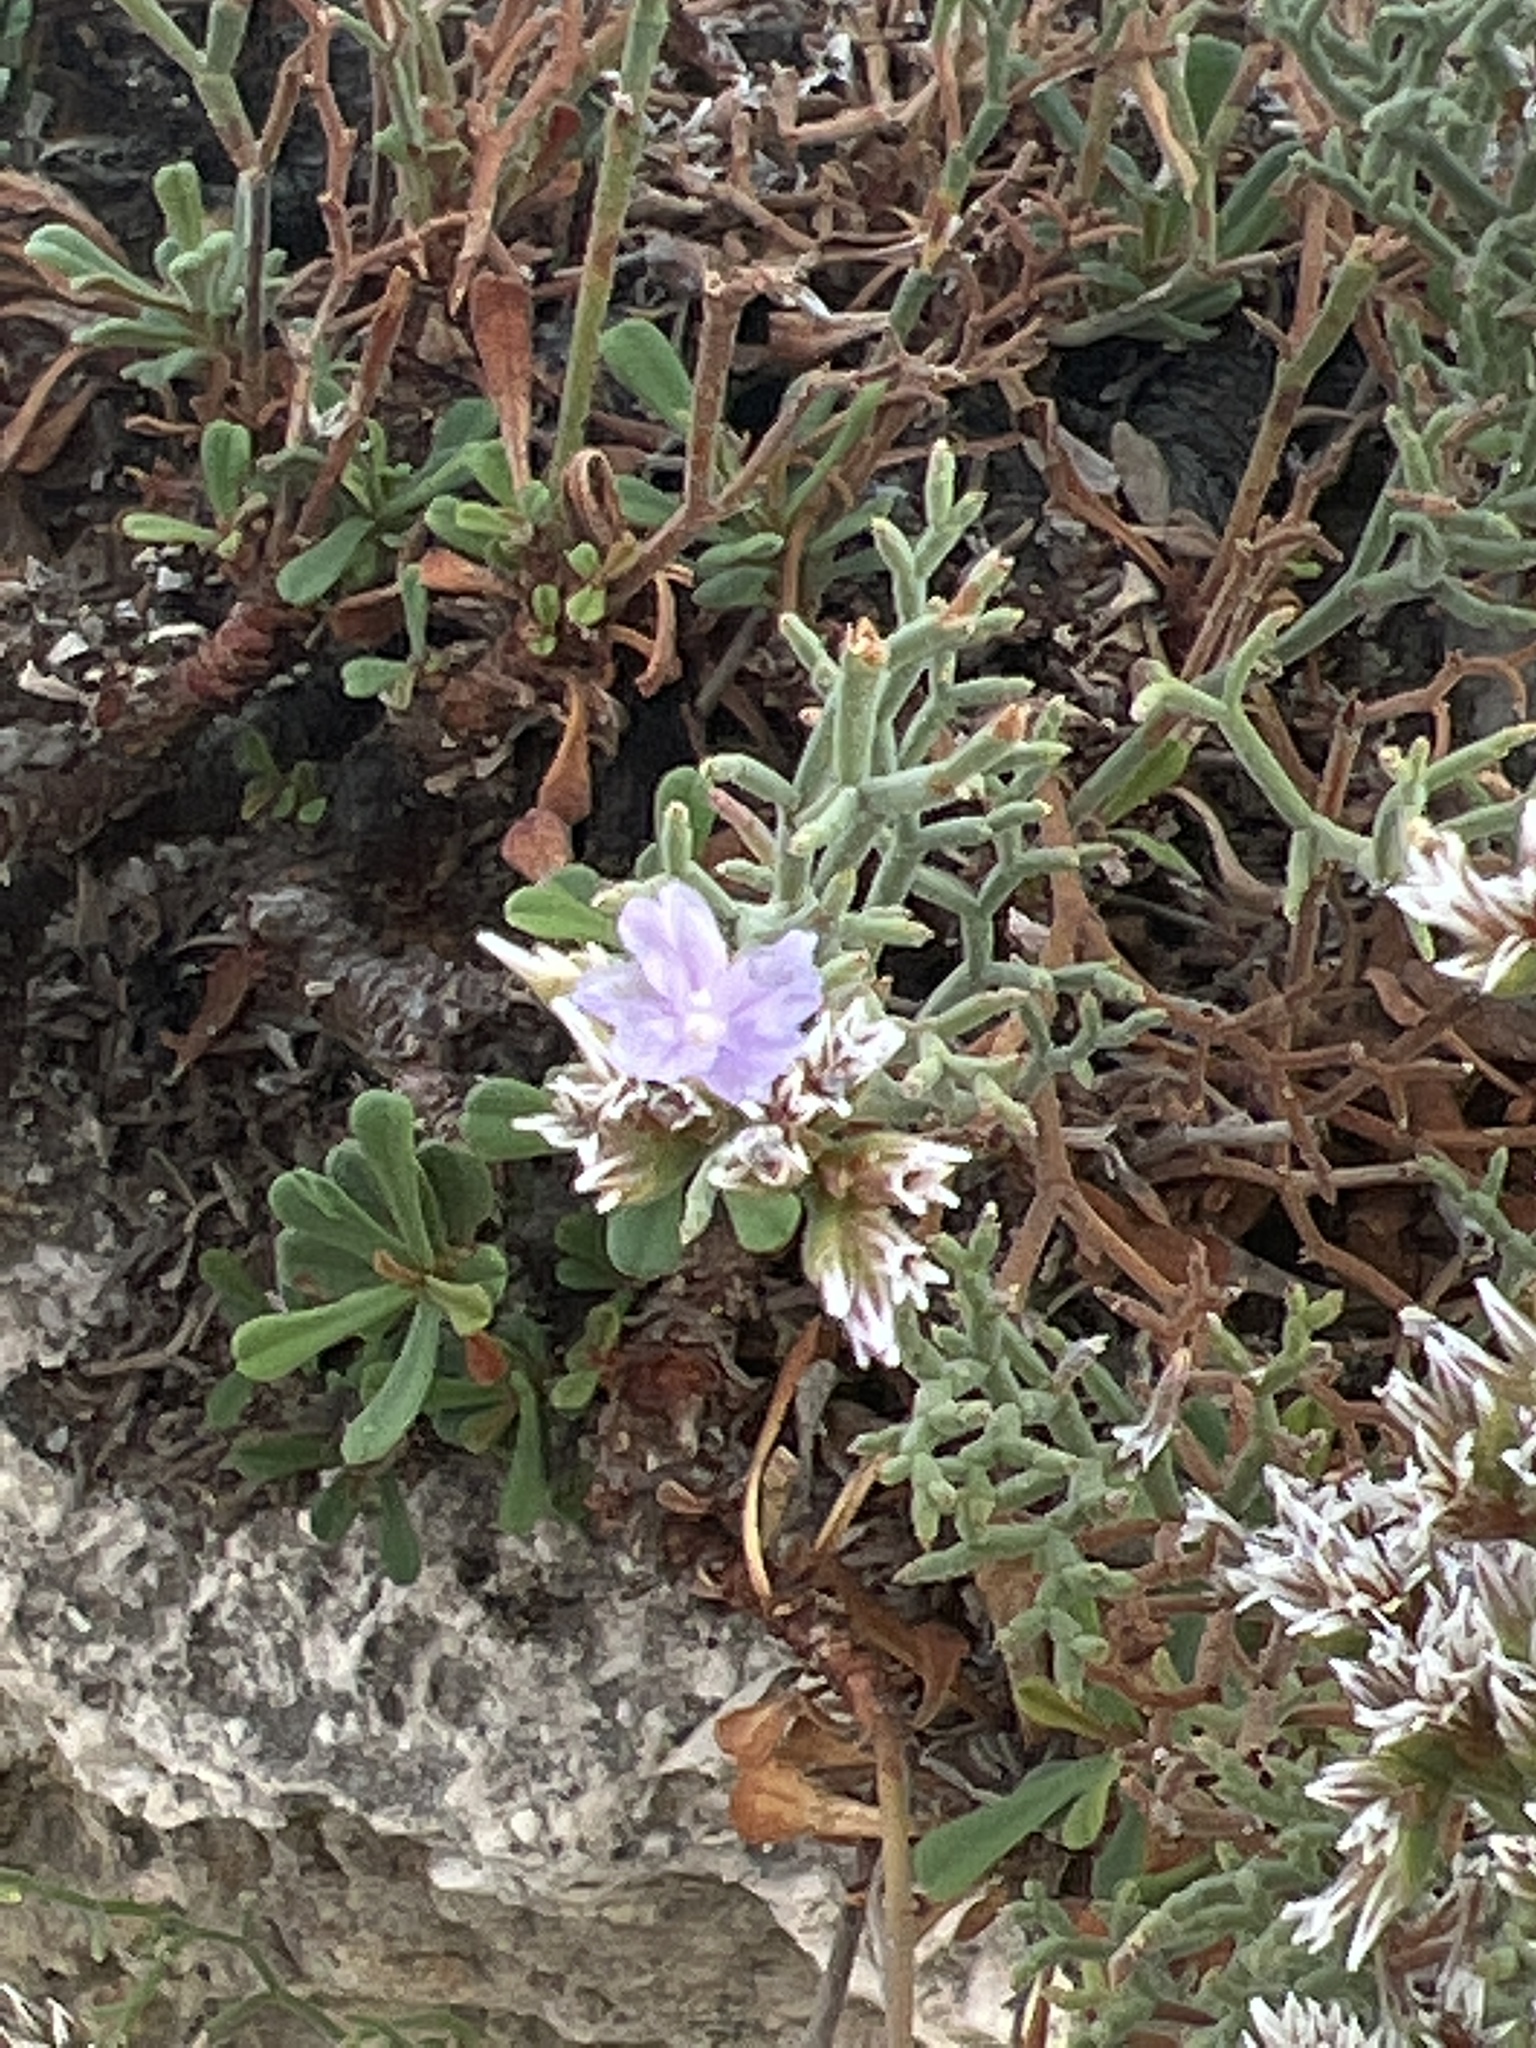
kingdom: Plantae
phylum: Tracheophyta
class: Magnoliopsida
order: Caryophyllales
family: Plumbaginaceae
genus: Limonium
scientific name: Limonium cordatum
